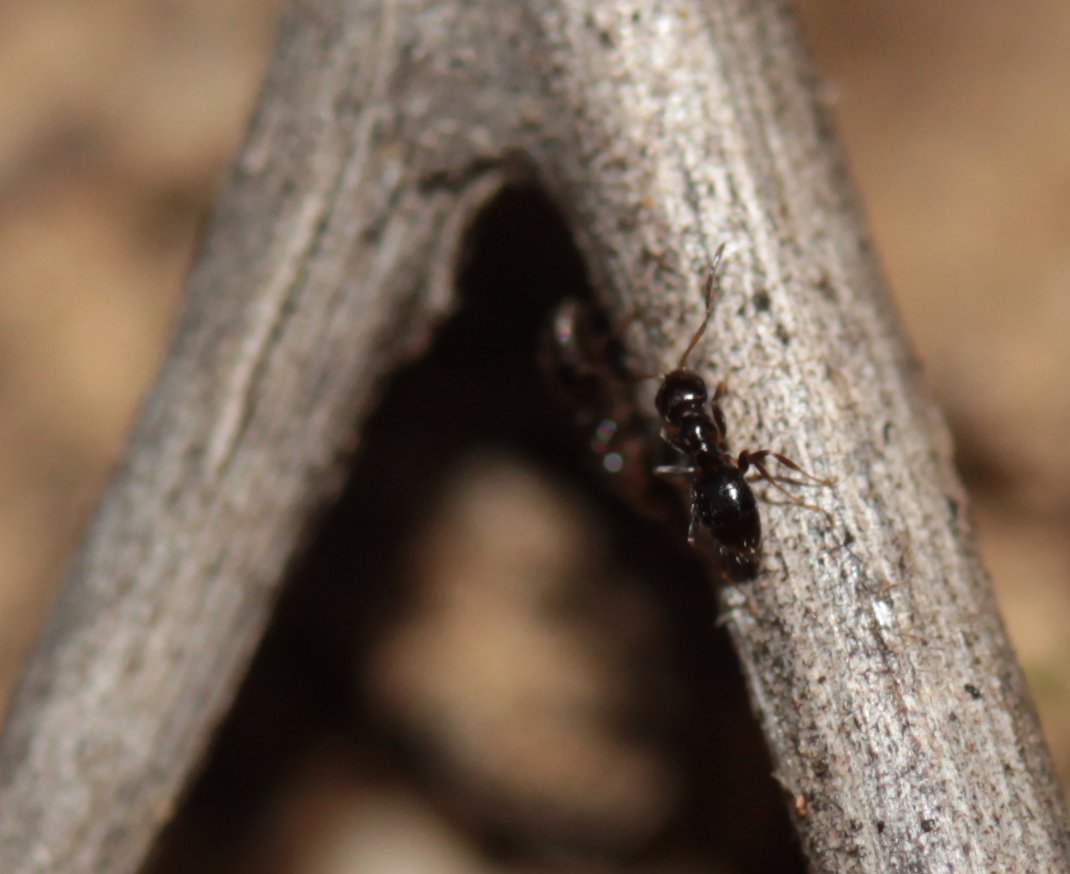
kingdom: Animalia
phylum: Arthropoda
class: Insecta
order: Hymenoptera
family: Formicidae
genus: Brachymyrmex
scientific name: Brachymyrmex patagonicus
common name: Dark rover ant
